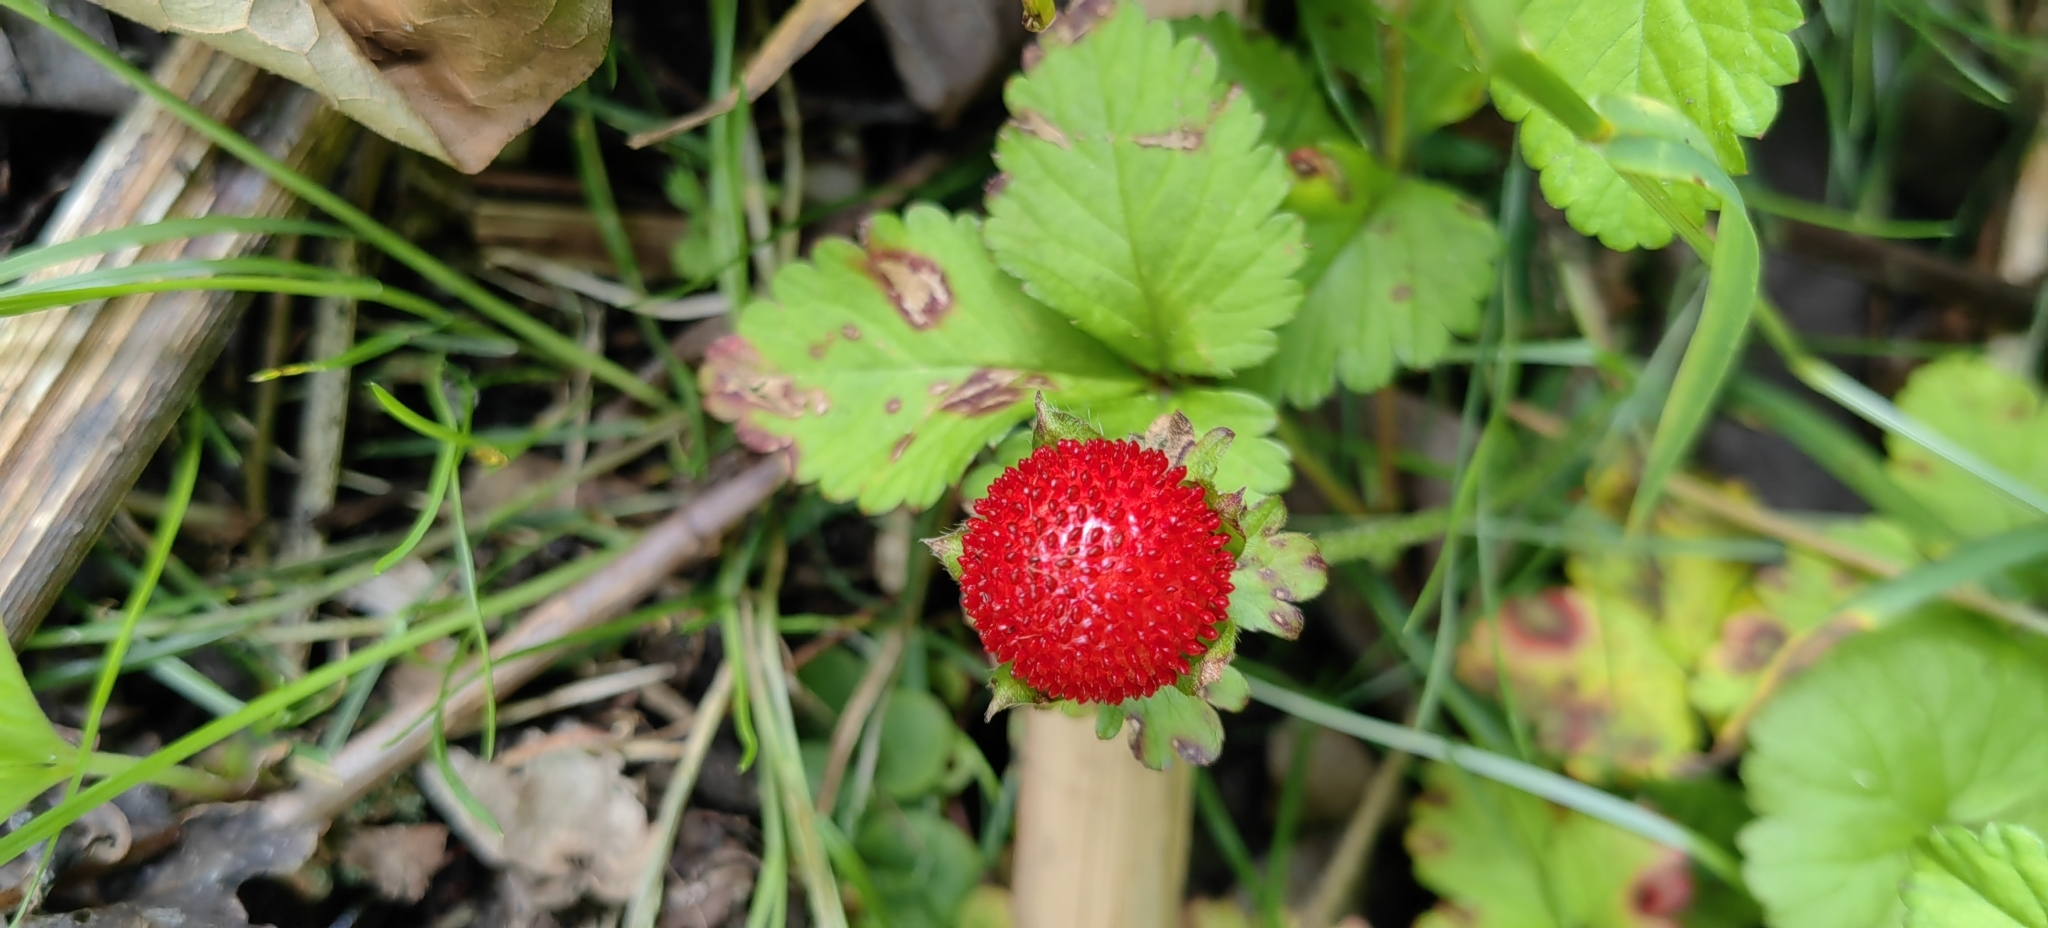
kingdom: Plantae
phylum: Tracheophyta
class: Magnoliopsida
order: Rosales
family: Rosaceae
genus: Potentilla
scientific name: Potentilla indica
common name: Yellow-flowered strawberry
